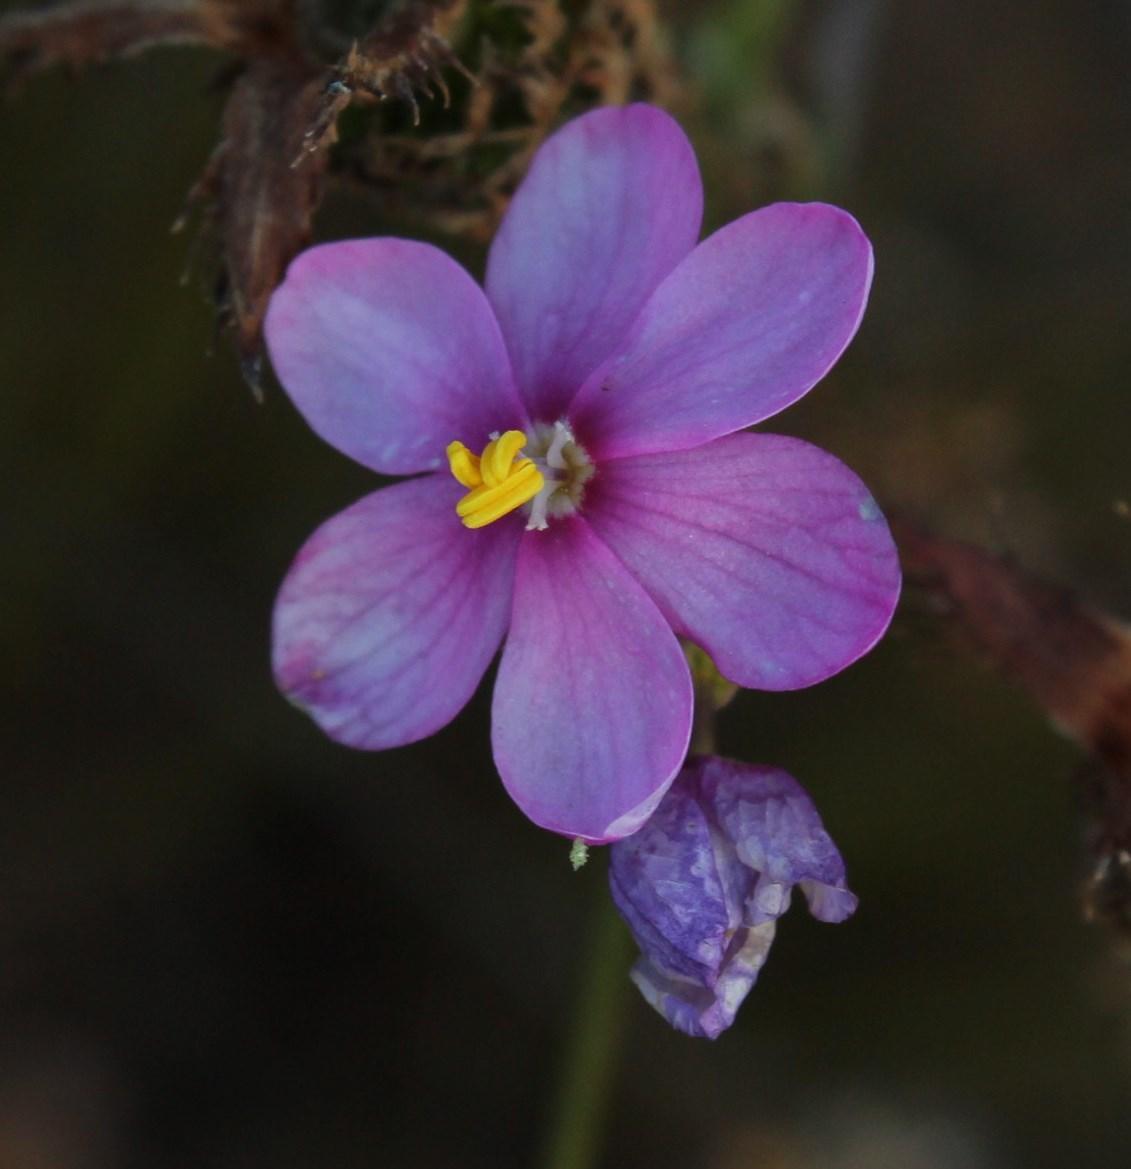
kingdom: Plantae
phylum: Tracheophyta
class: Liliopsida
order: Asparagales
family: Iridaceae
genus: Ixia
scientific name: Ixia stricta
